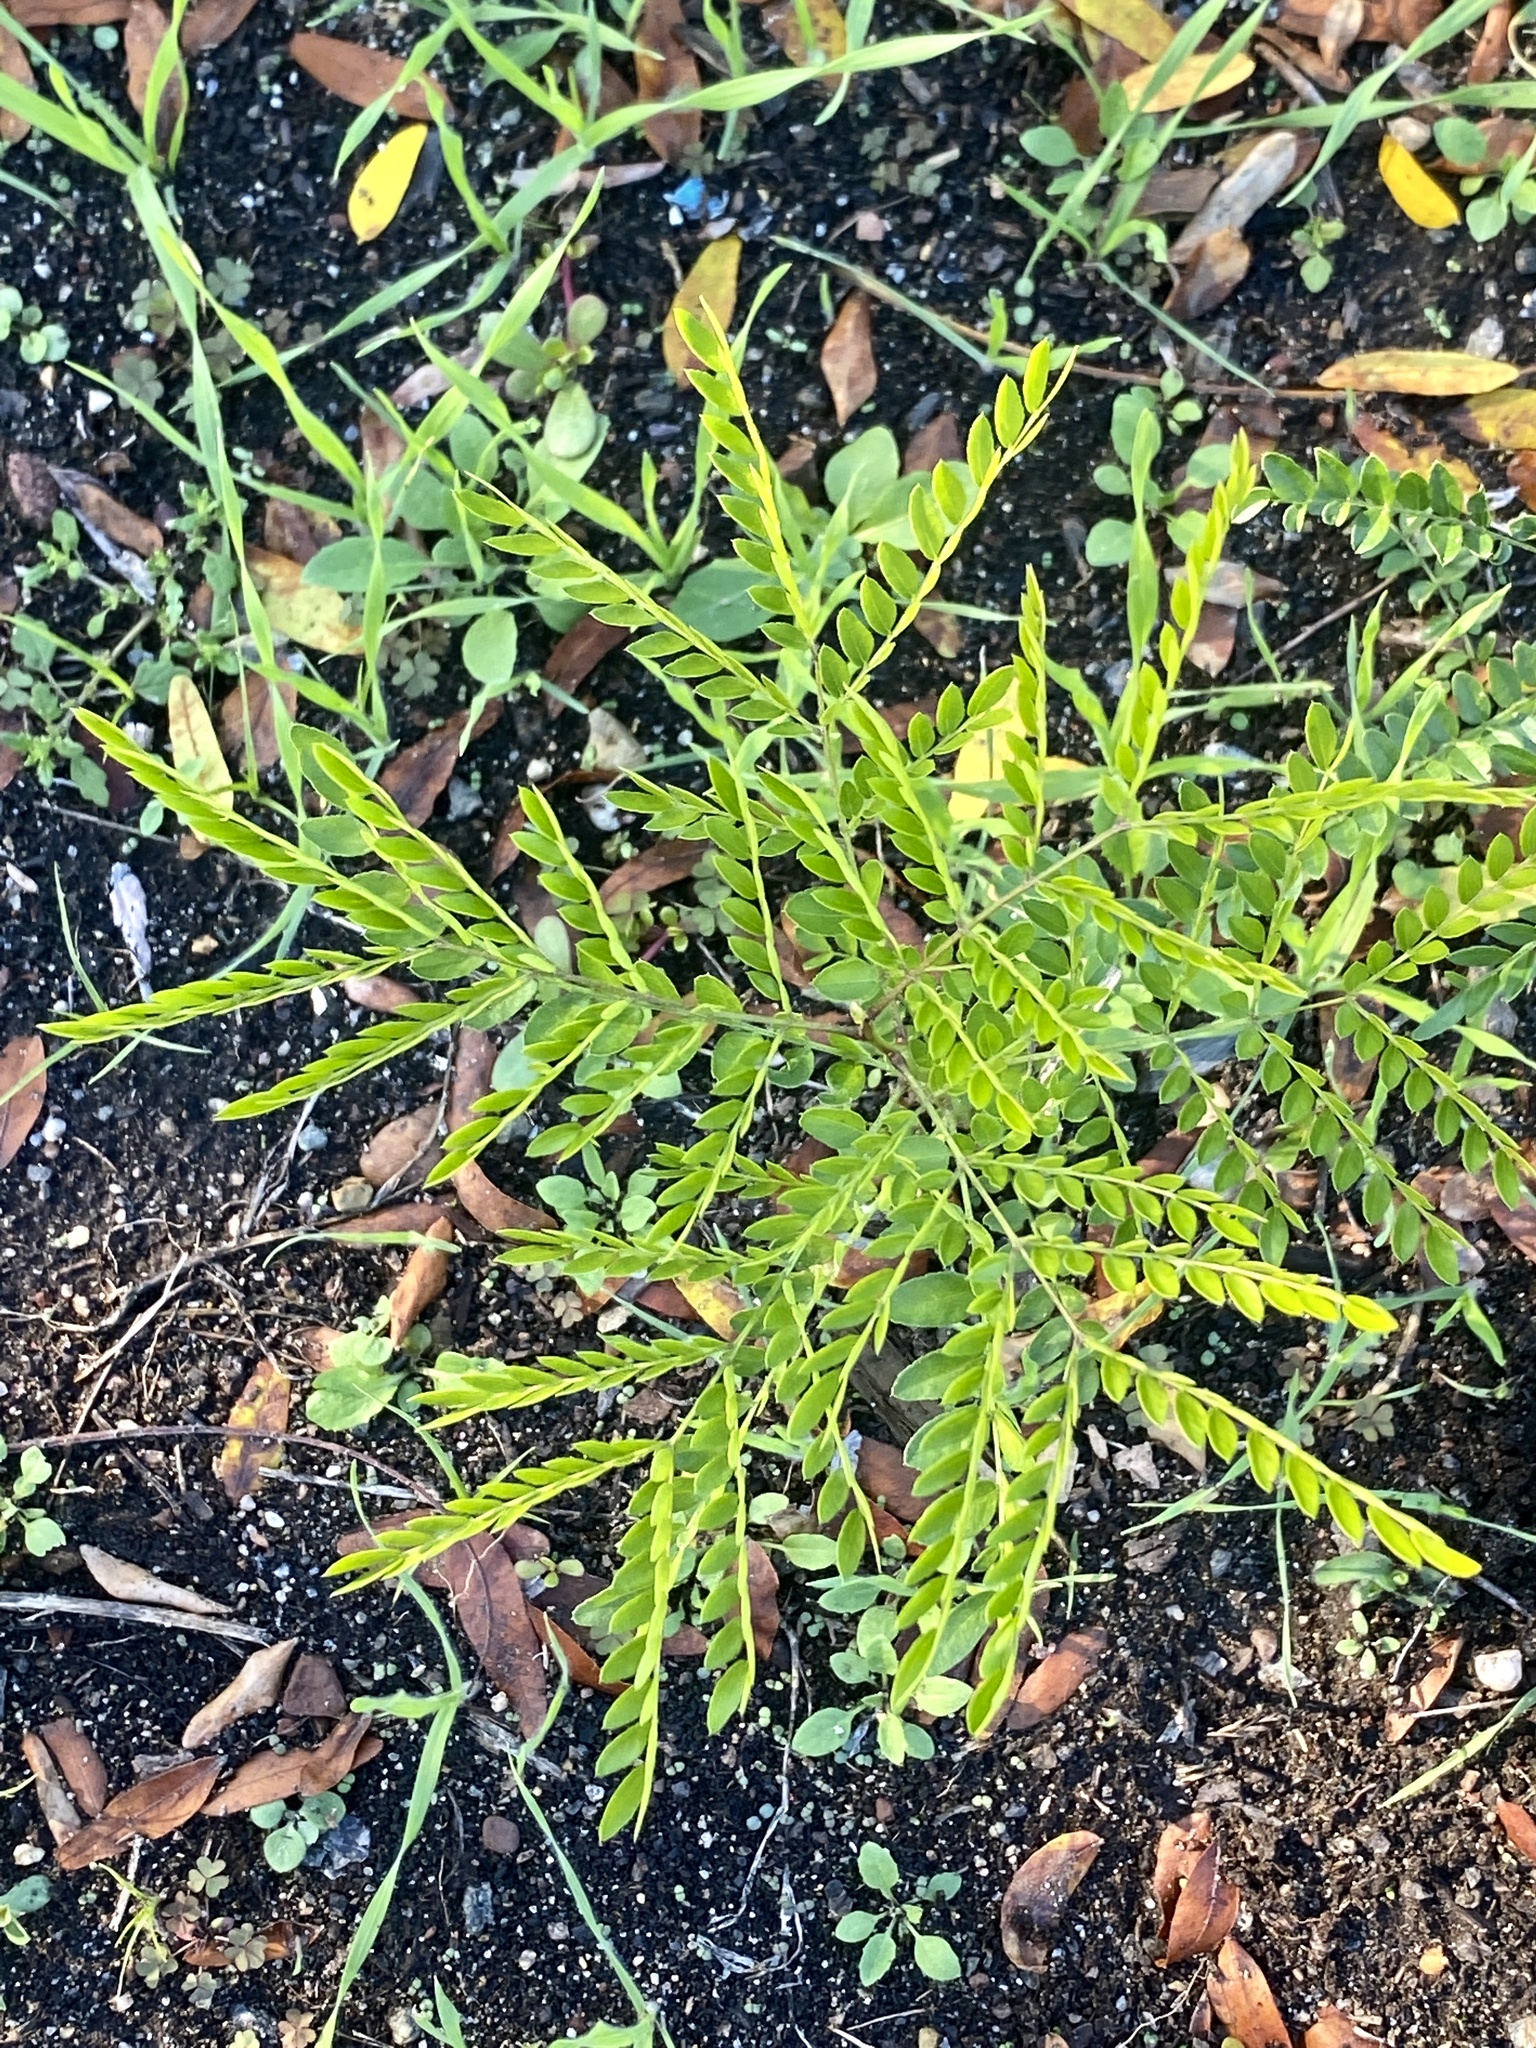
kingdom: Plantae
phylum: Tracheophyta
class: Magnoliopsida
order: Fabales
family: Fabaceae
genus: Gleditsia
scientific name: Gleditsia triacanthos
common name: Common honeylocust
